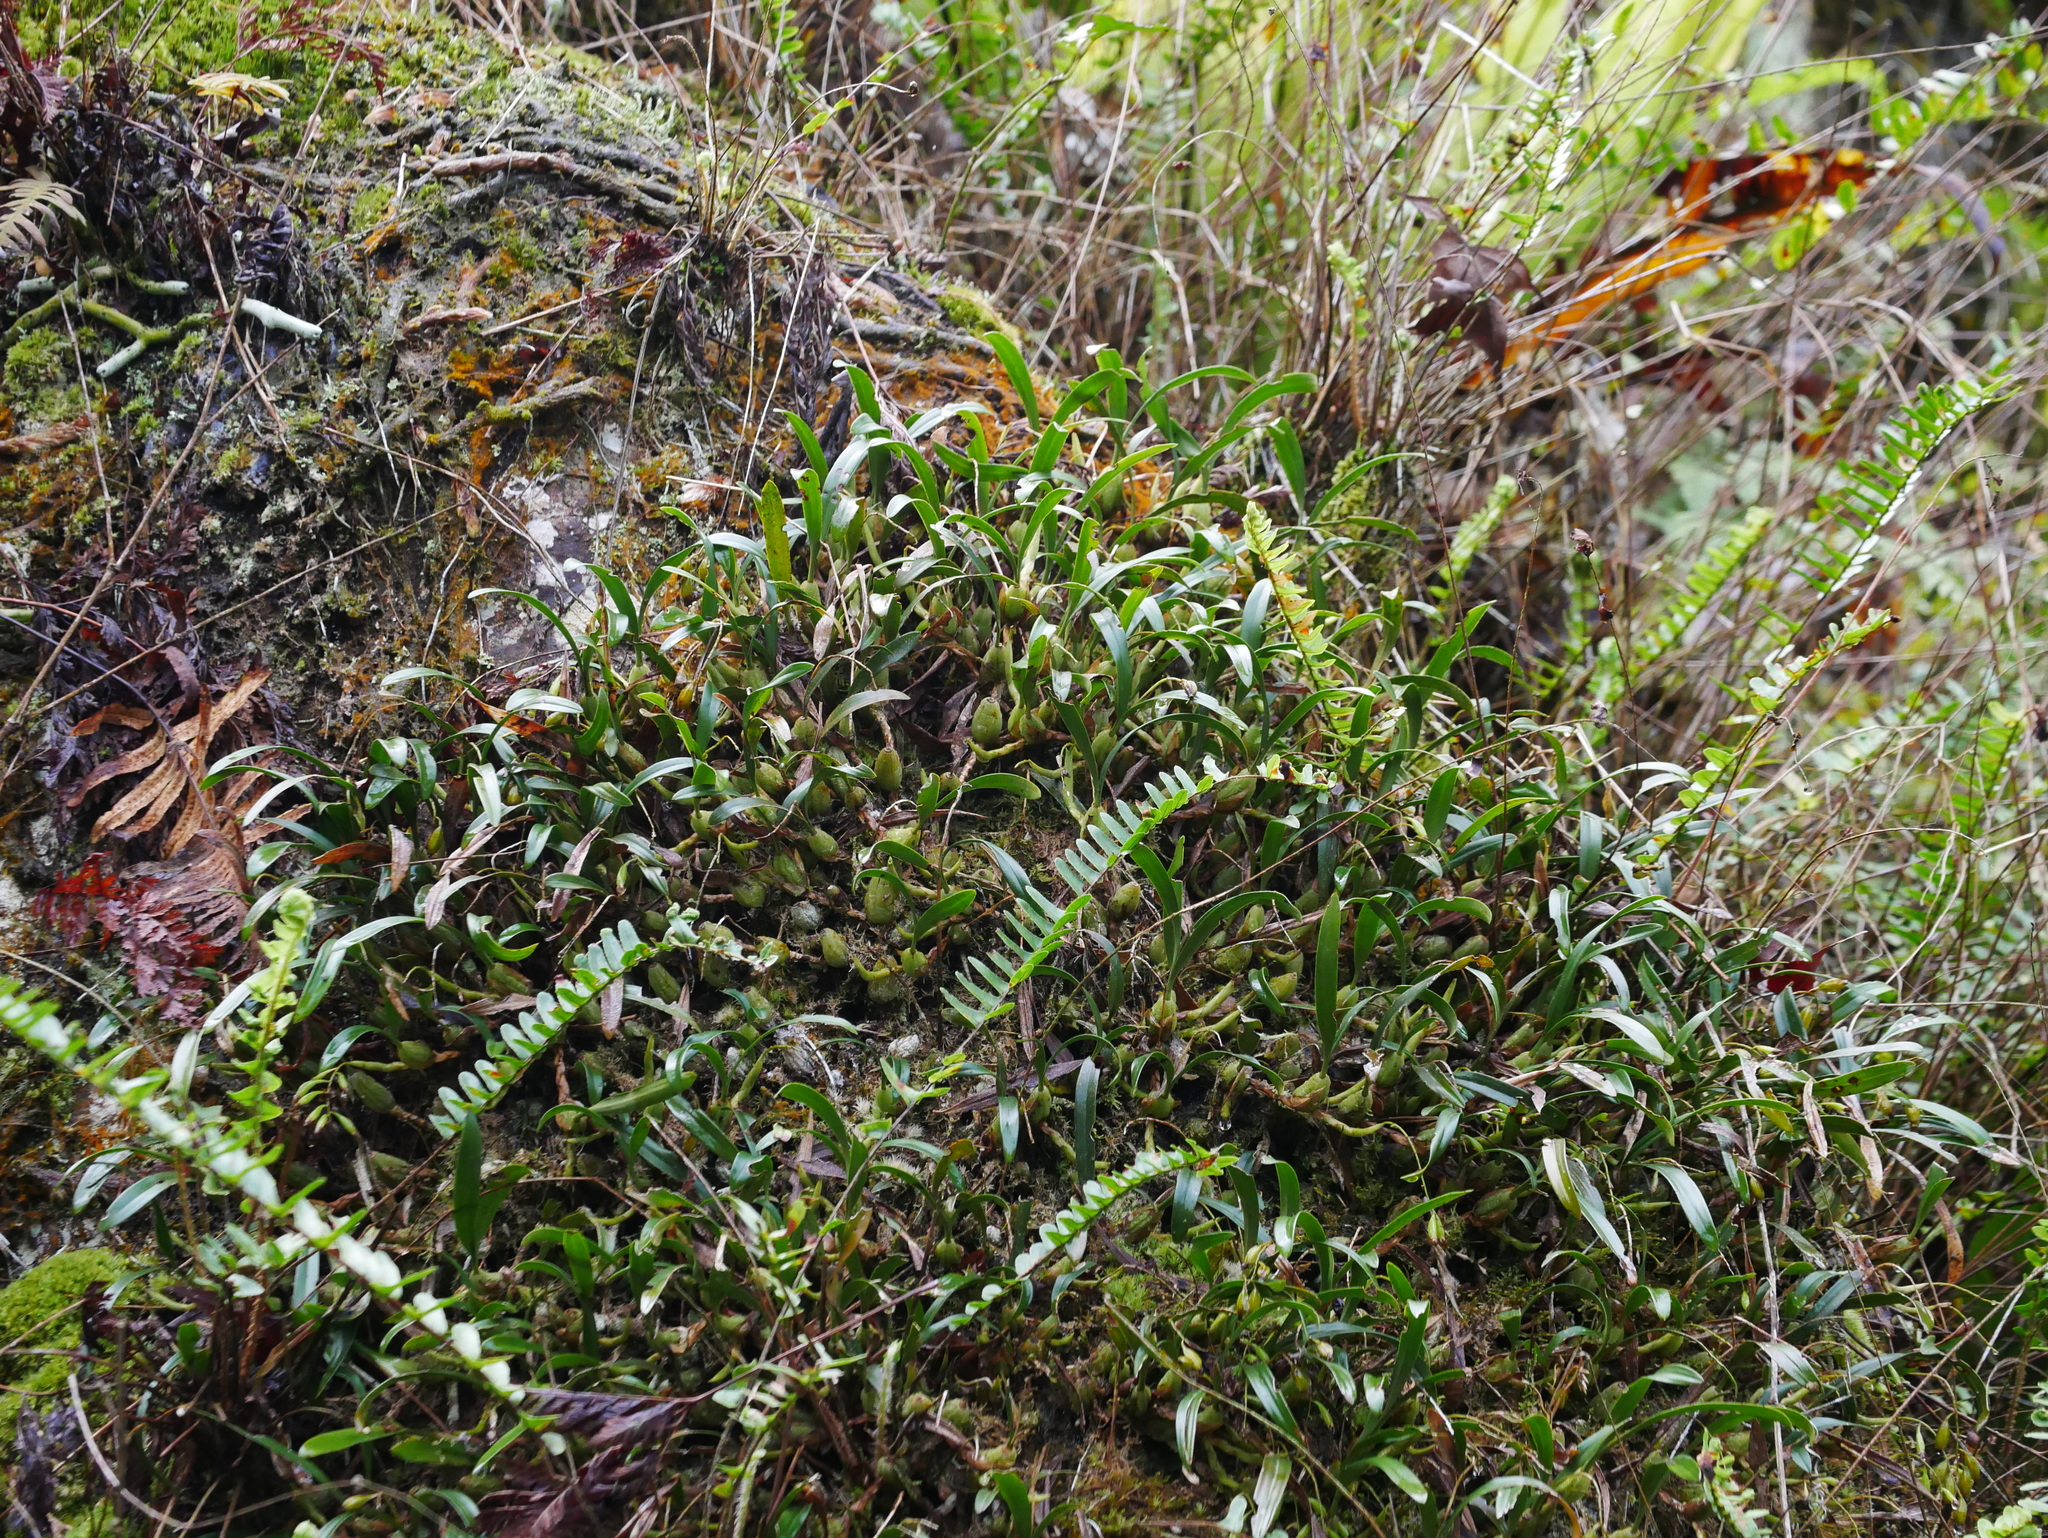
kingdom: Plantae
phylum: Tracheophyta
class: Liliopsida
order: Asparagales
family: Orchidaceae
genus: Coelogyne
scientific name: Coelogyne cantonensis
